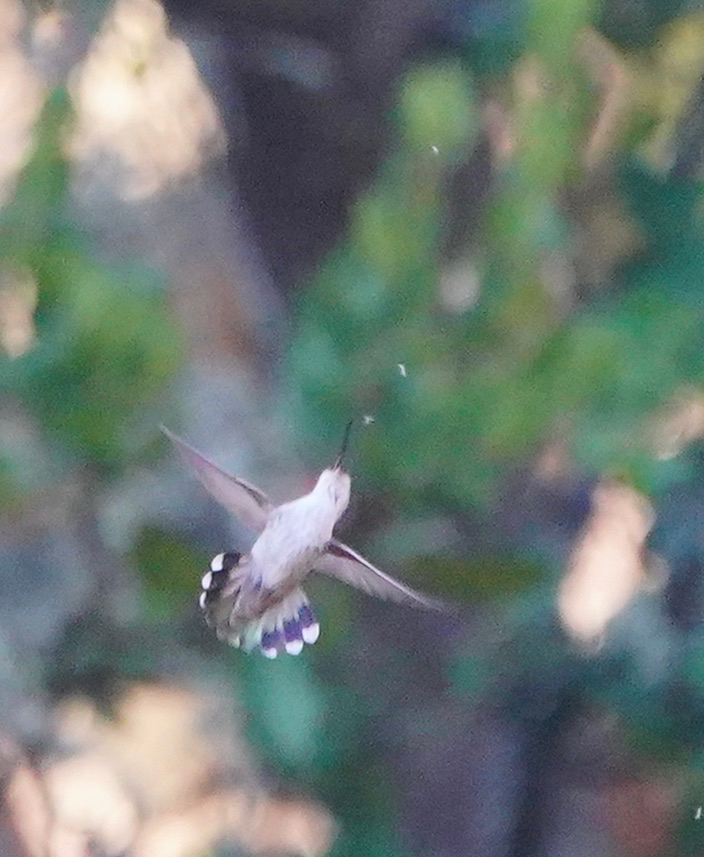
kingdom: Animalia
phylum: Chordata
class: Aves
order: Apodiformes
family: Trochilidae
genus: Calypte
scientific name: Calypte anna
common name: Anna's hummingbird
